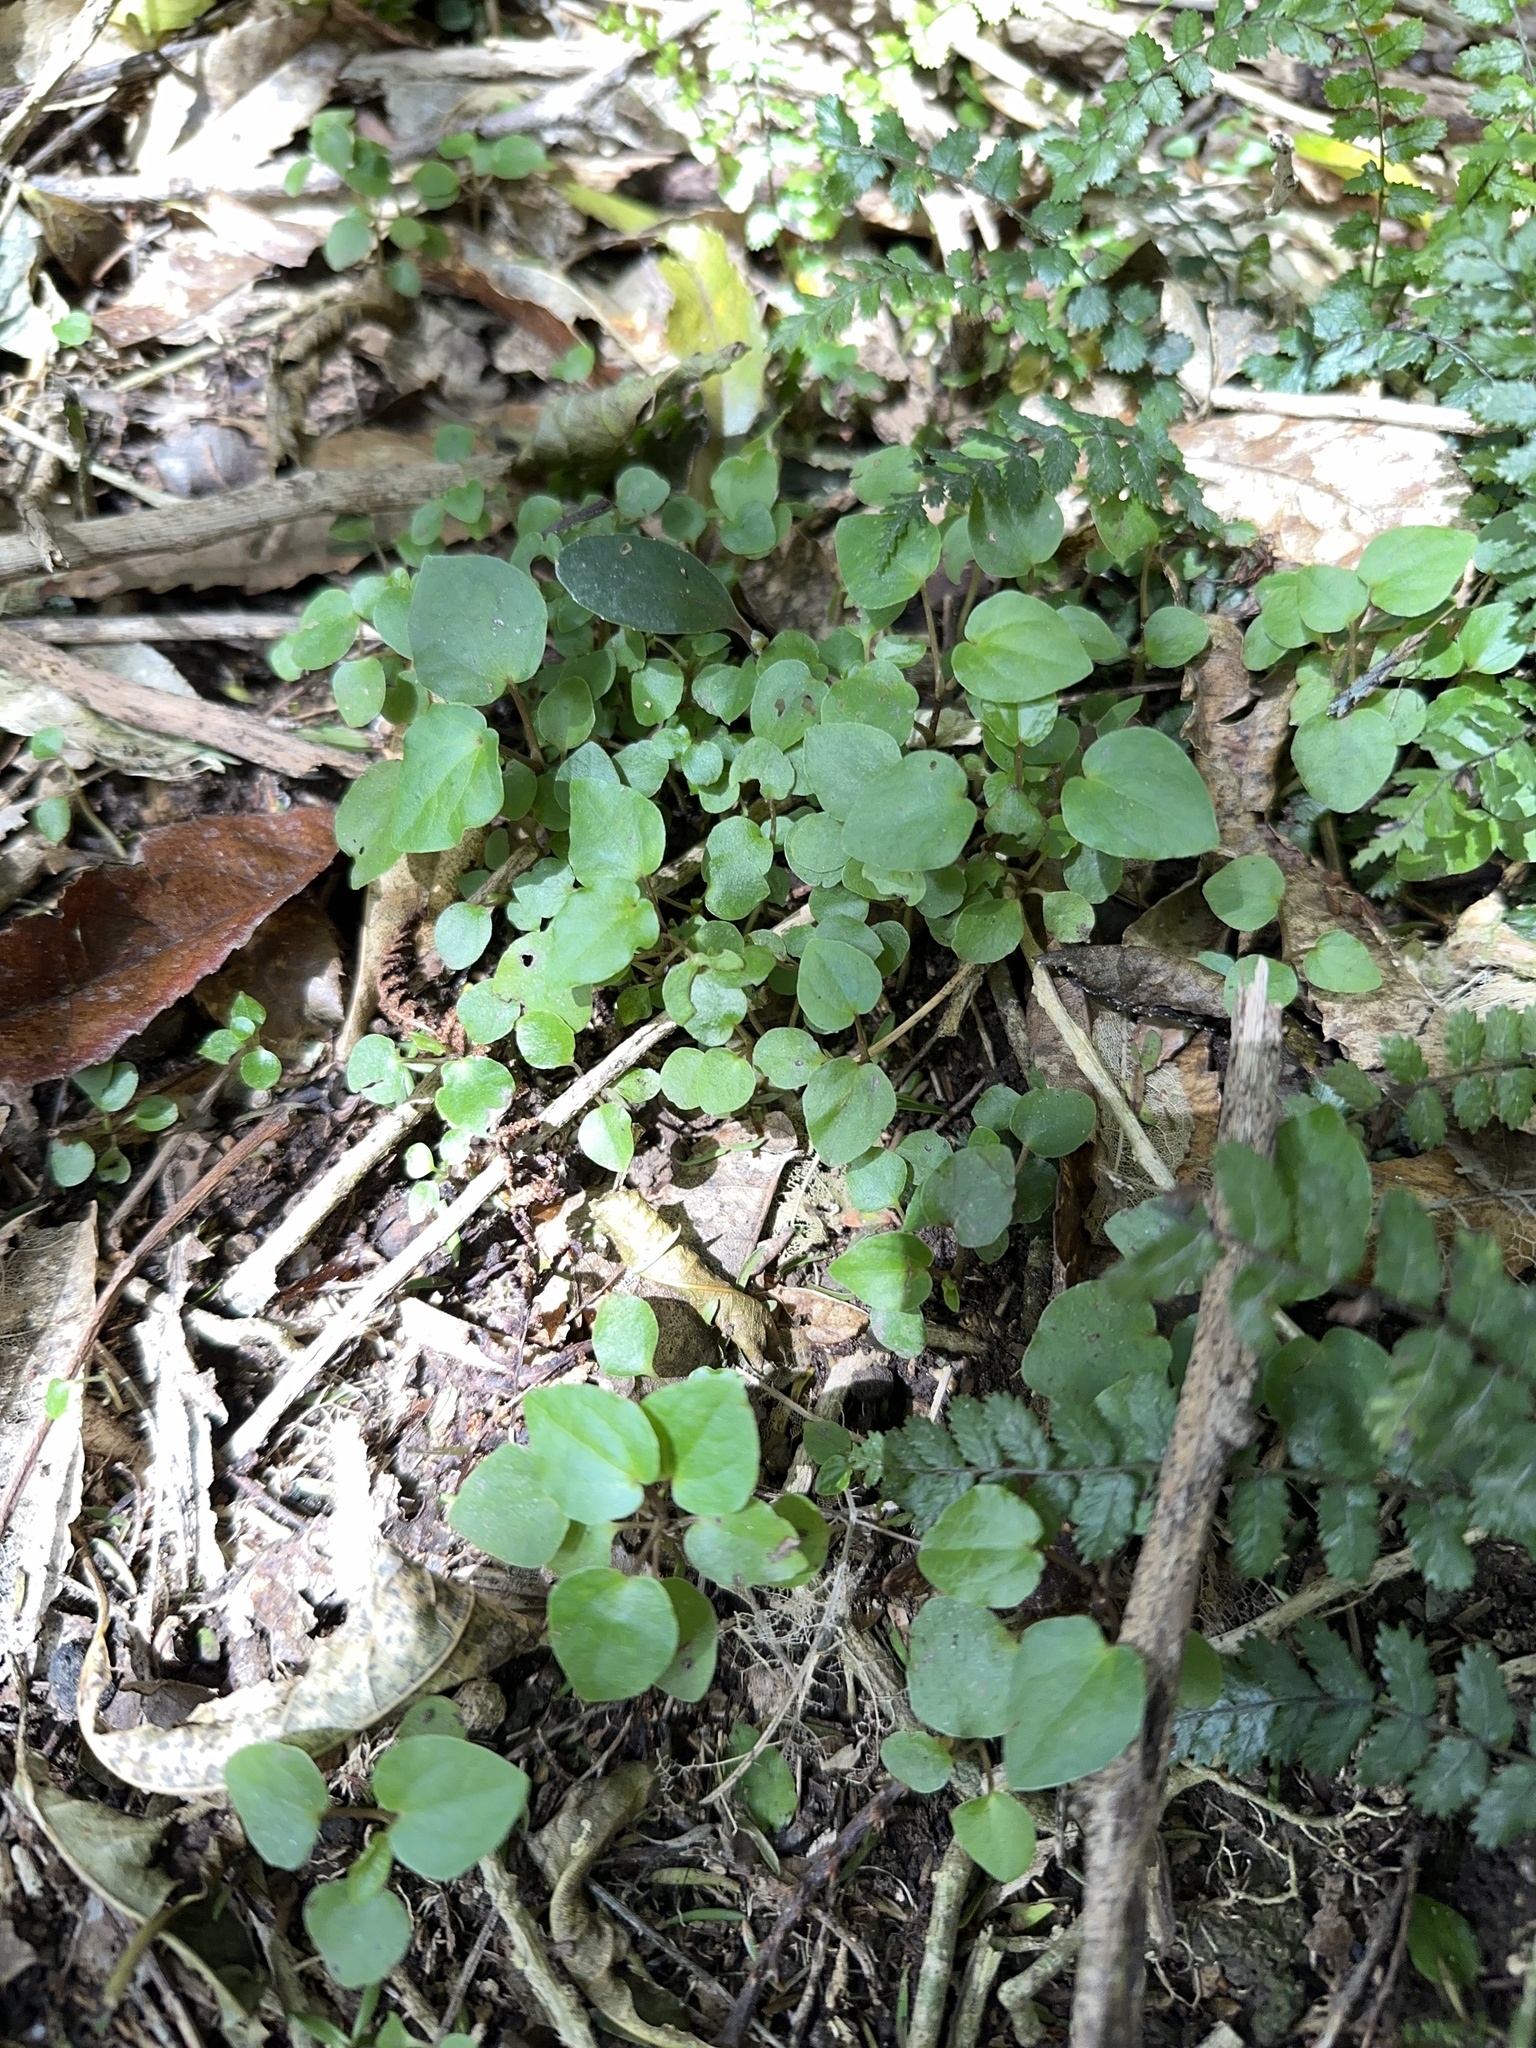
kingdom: Plantae
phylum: Tracheophyta
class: Magnoliopsida
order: Piperales
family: Piperaceae
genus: Macropiper
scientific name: Macropiper excelsum
